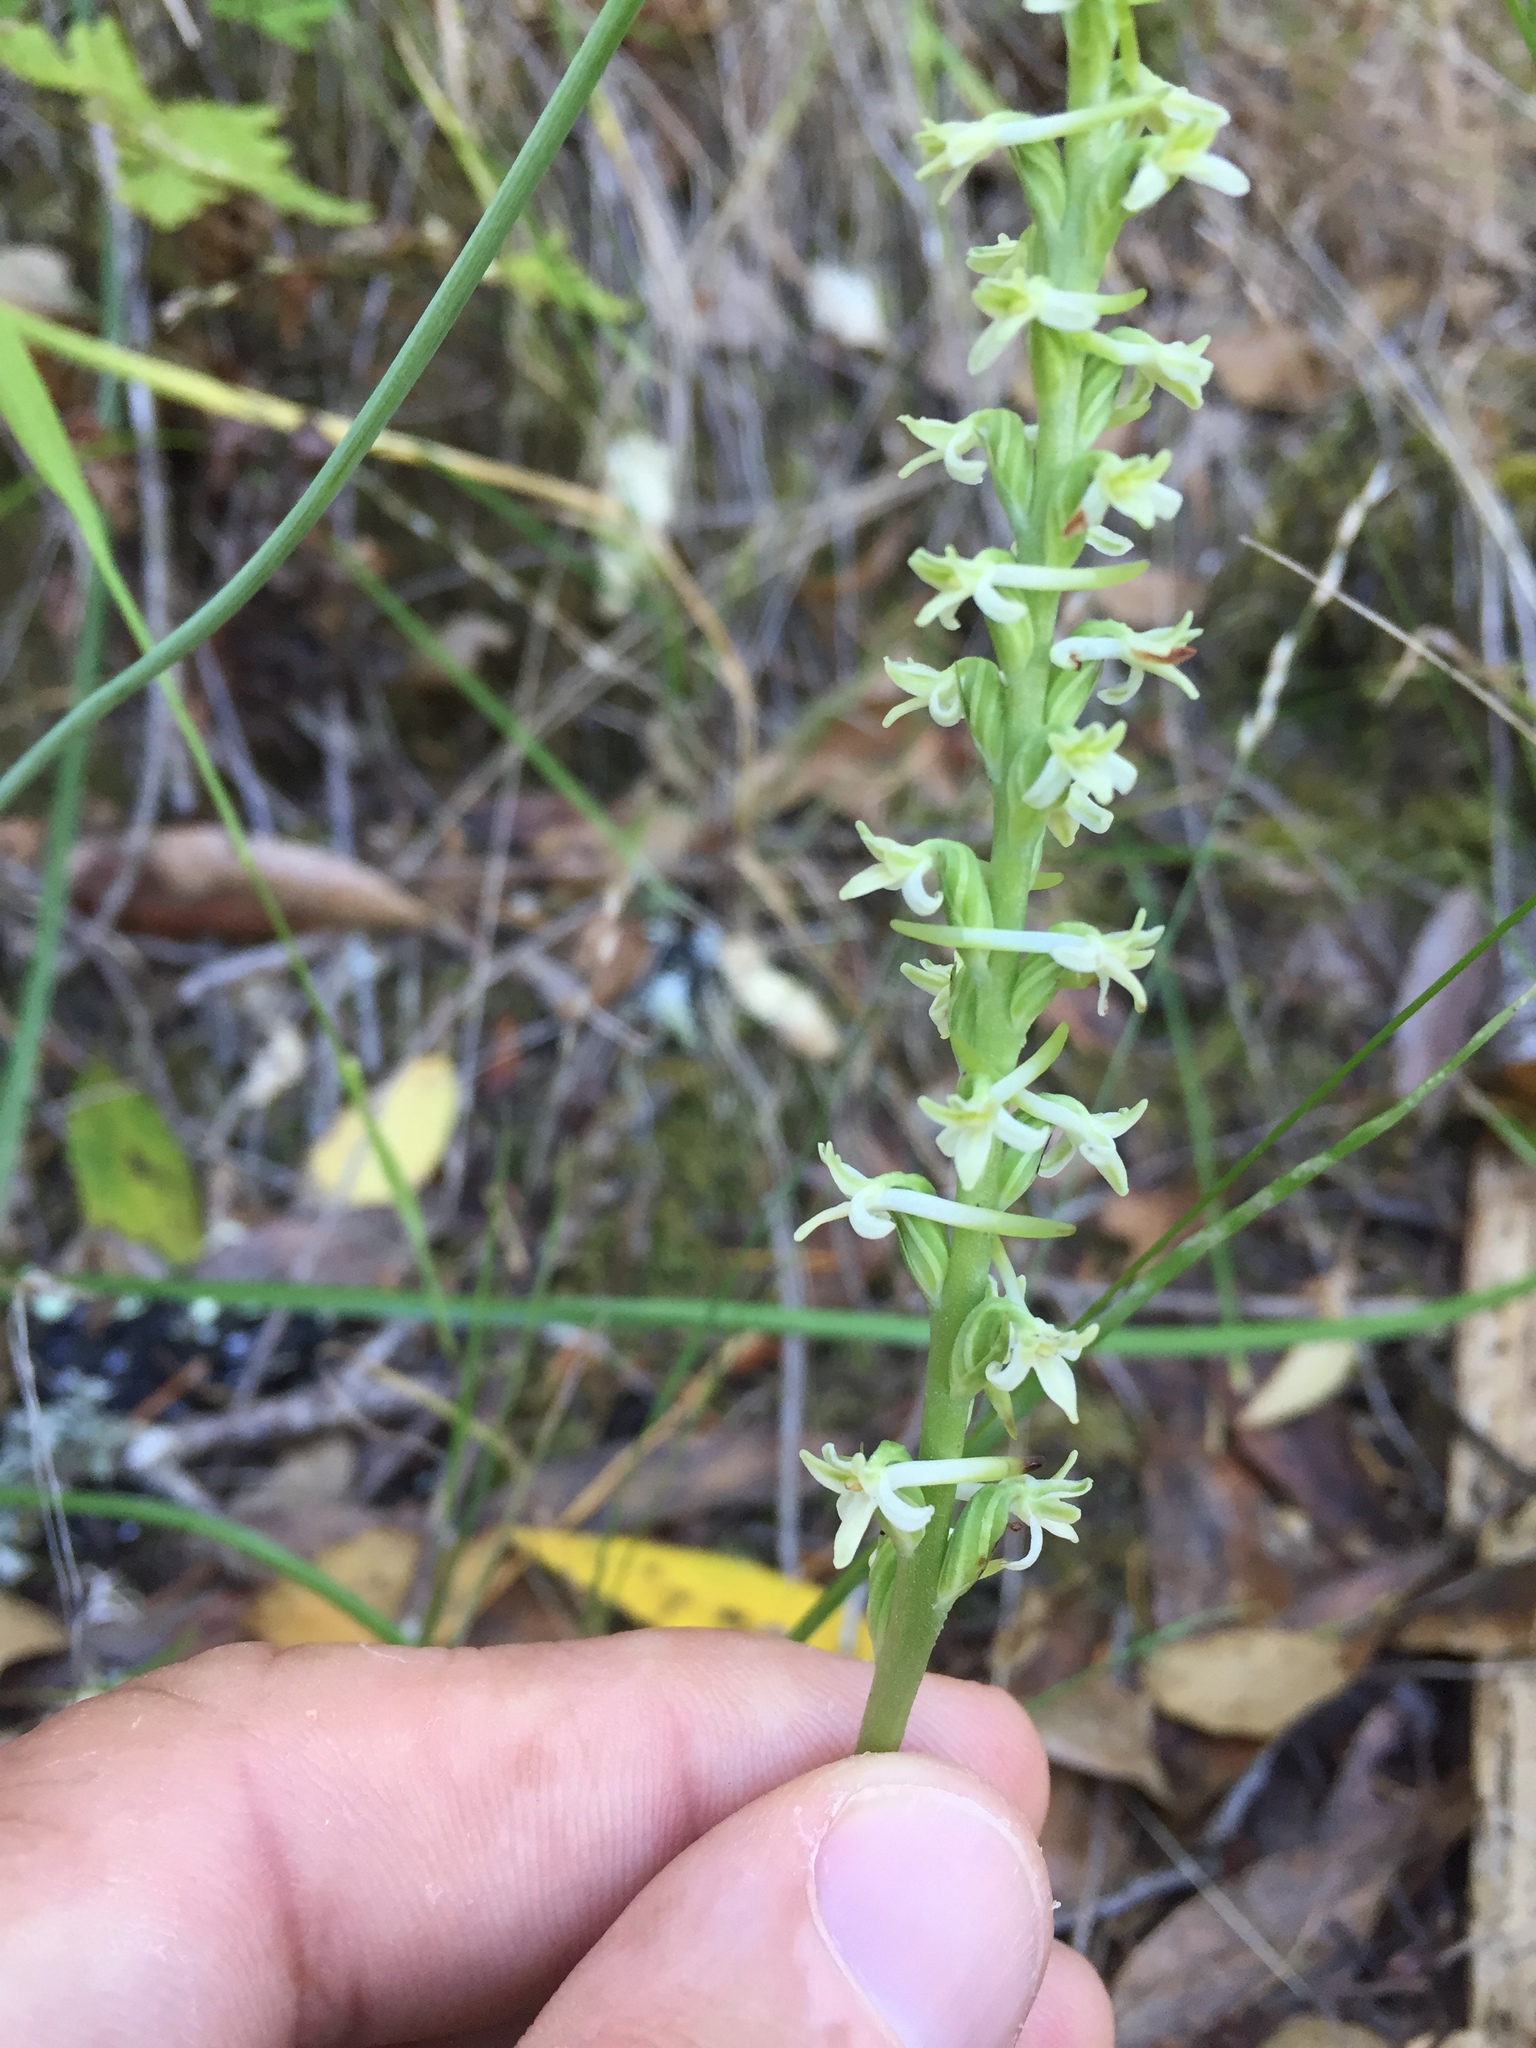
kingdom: Plantae
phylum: Tracheophyta
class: Liliopsida
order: Asparagales
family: Orchidaceae
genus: Platanthera
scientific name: Platanthera transversa
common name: Royal rein orchid
